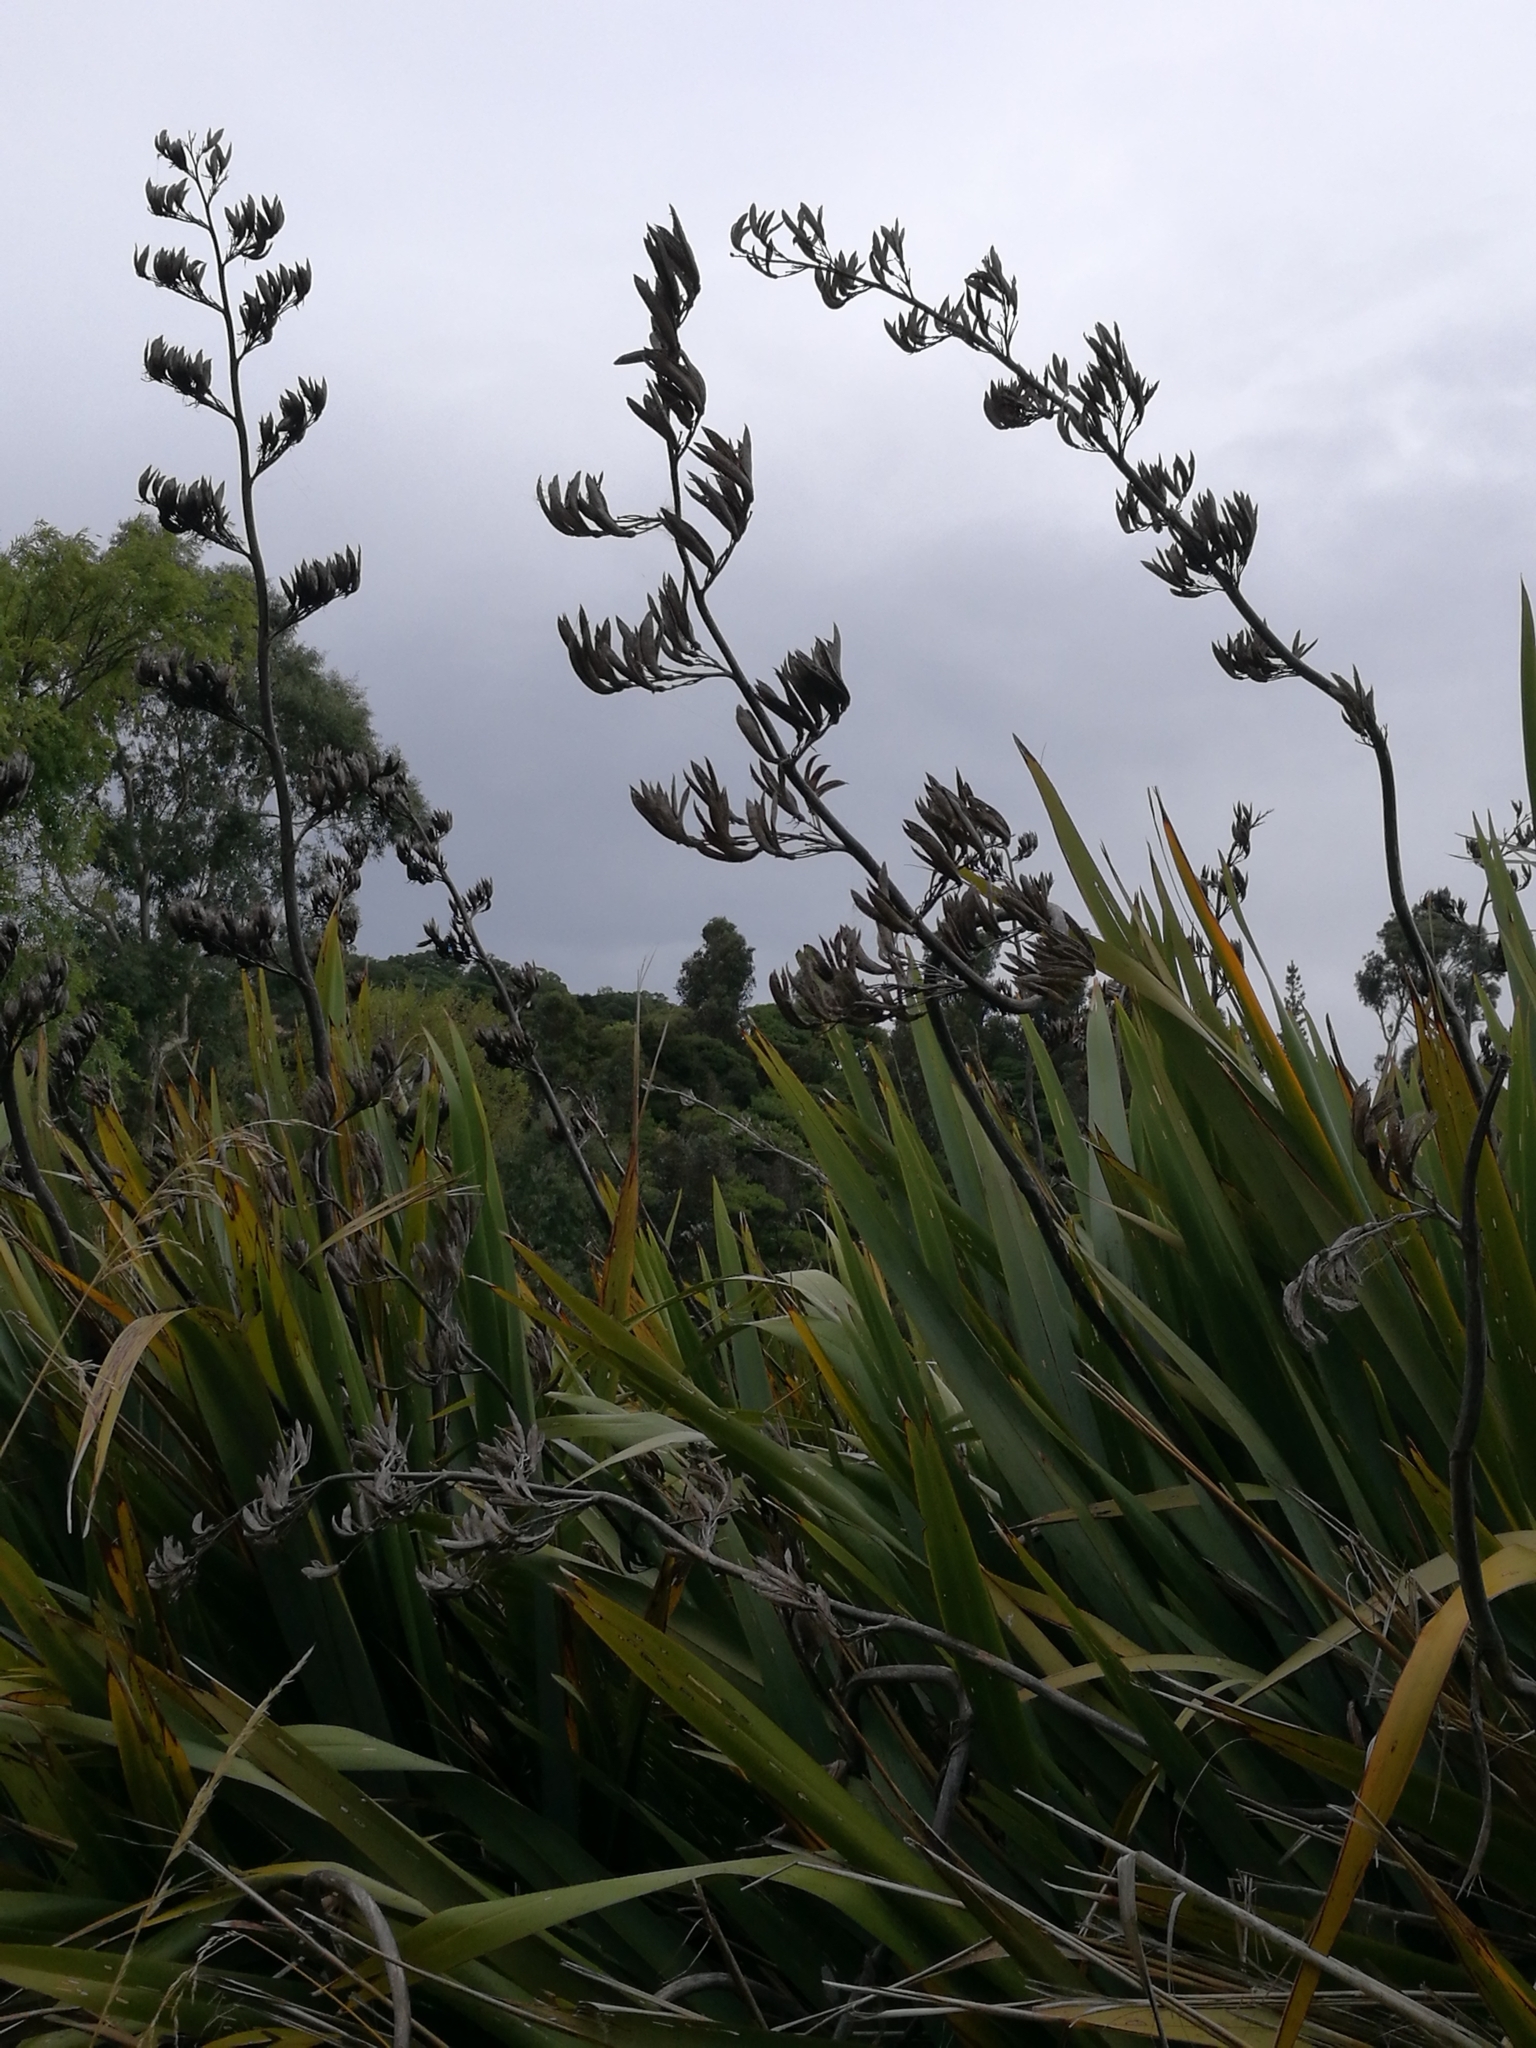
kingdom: Plantae
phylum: Tracheophyta
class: Liliopsida
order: Asparagales
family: Asphodelaceae
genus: Phormium
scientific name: Phormium tenax
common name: New zealand flax
